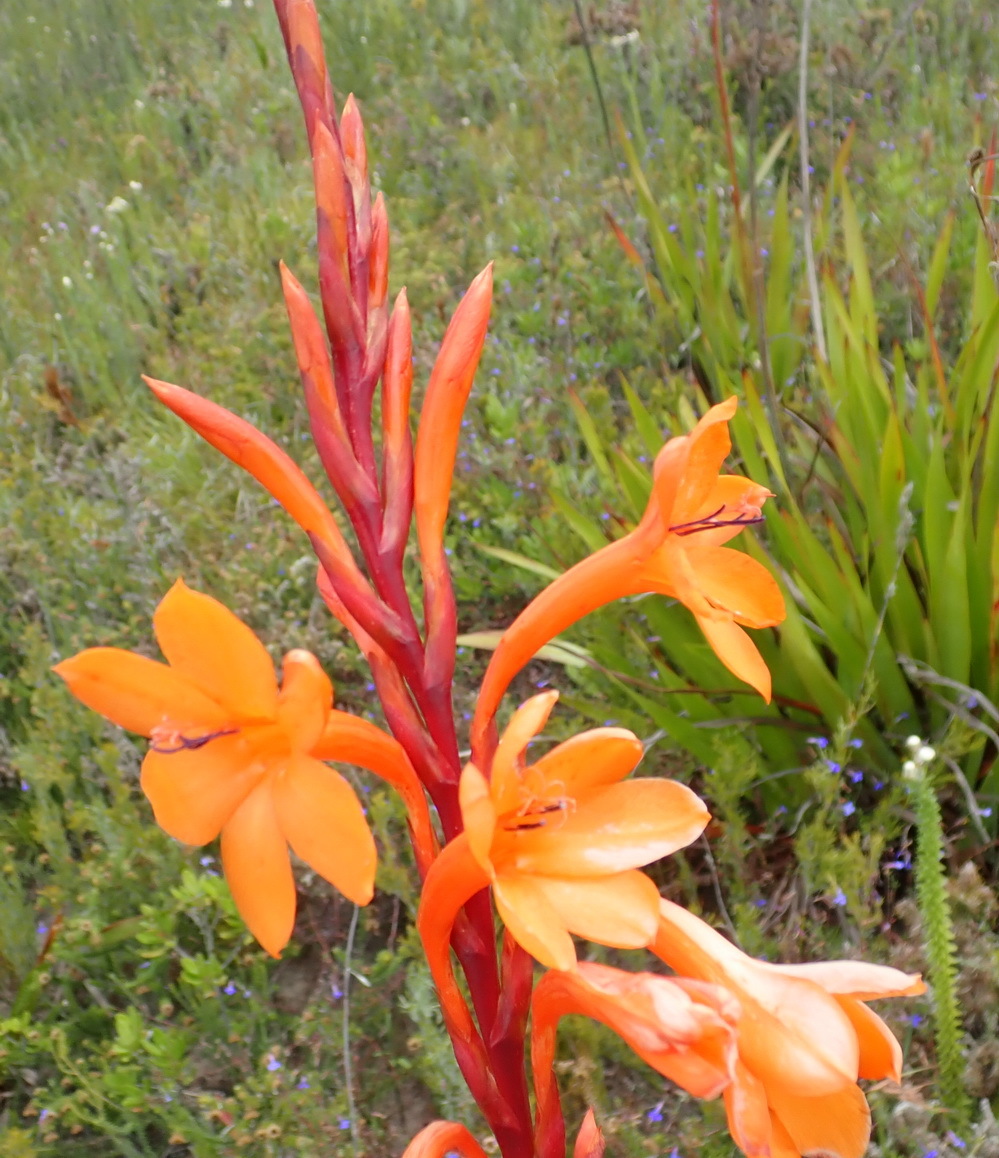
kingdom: Plantae
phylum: Tracheophyta
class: Liliopsida
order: Asparagales
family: Iridaceae
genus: Watsonia
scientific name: Watsonia pillansii
